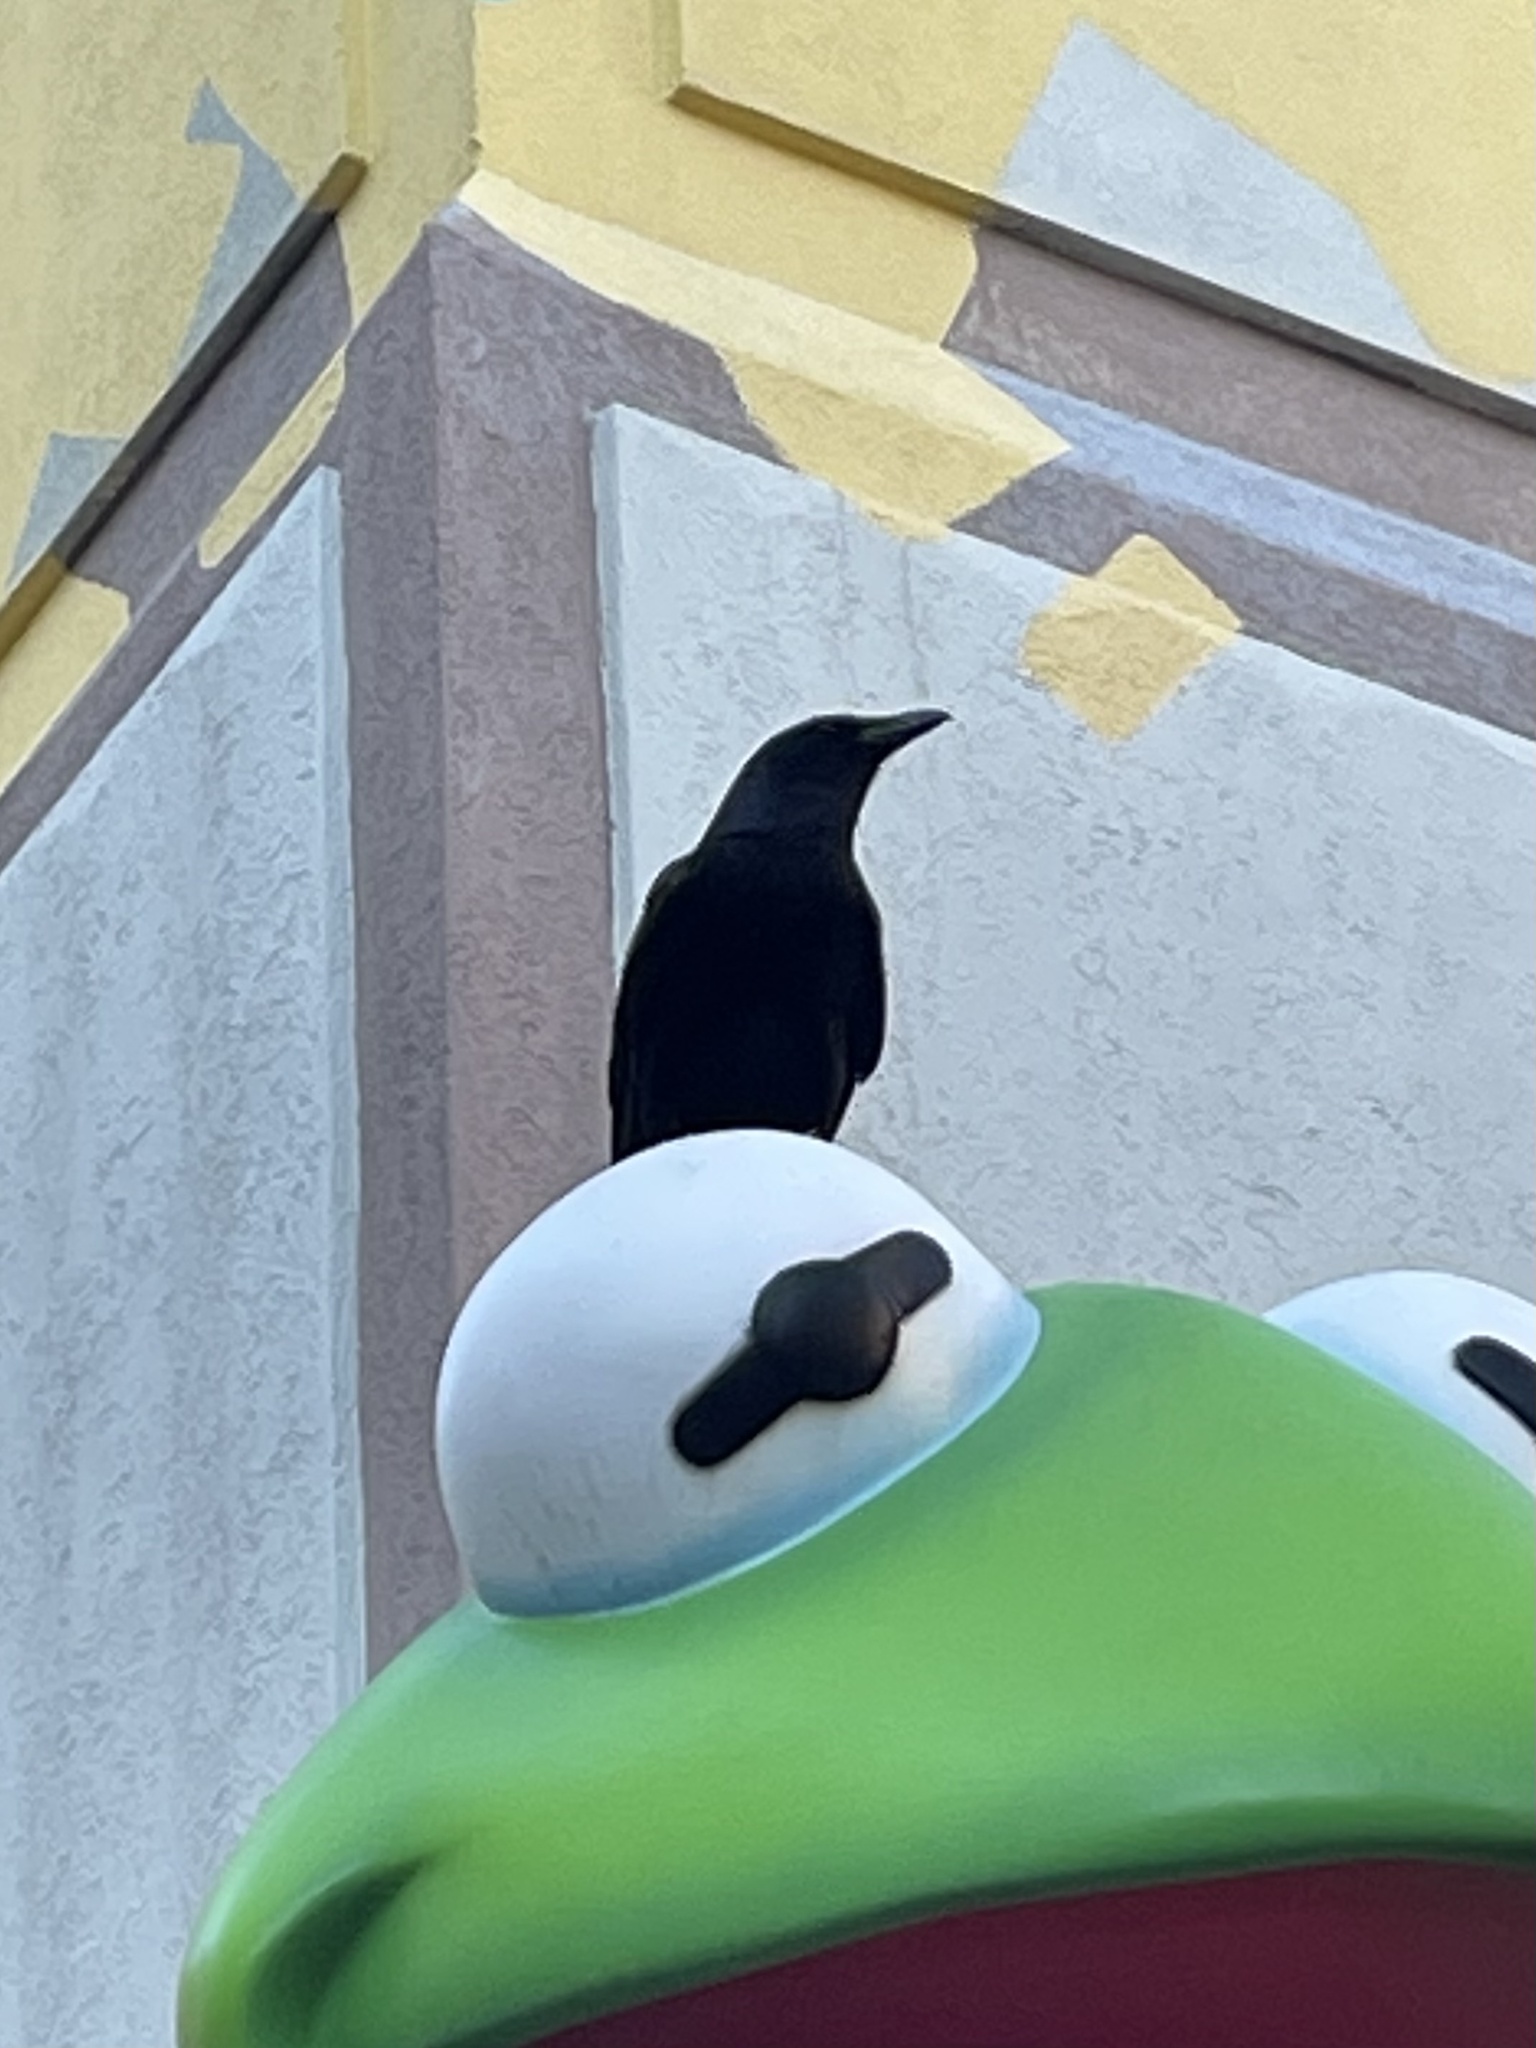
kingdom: Animalia
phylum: Chordata
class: Aves
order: Passeriformes
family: Corvidae
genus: Corvus
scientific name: Corvus
